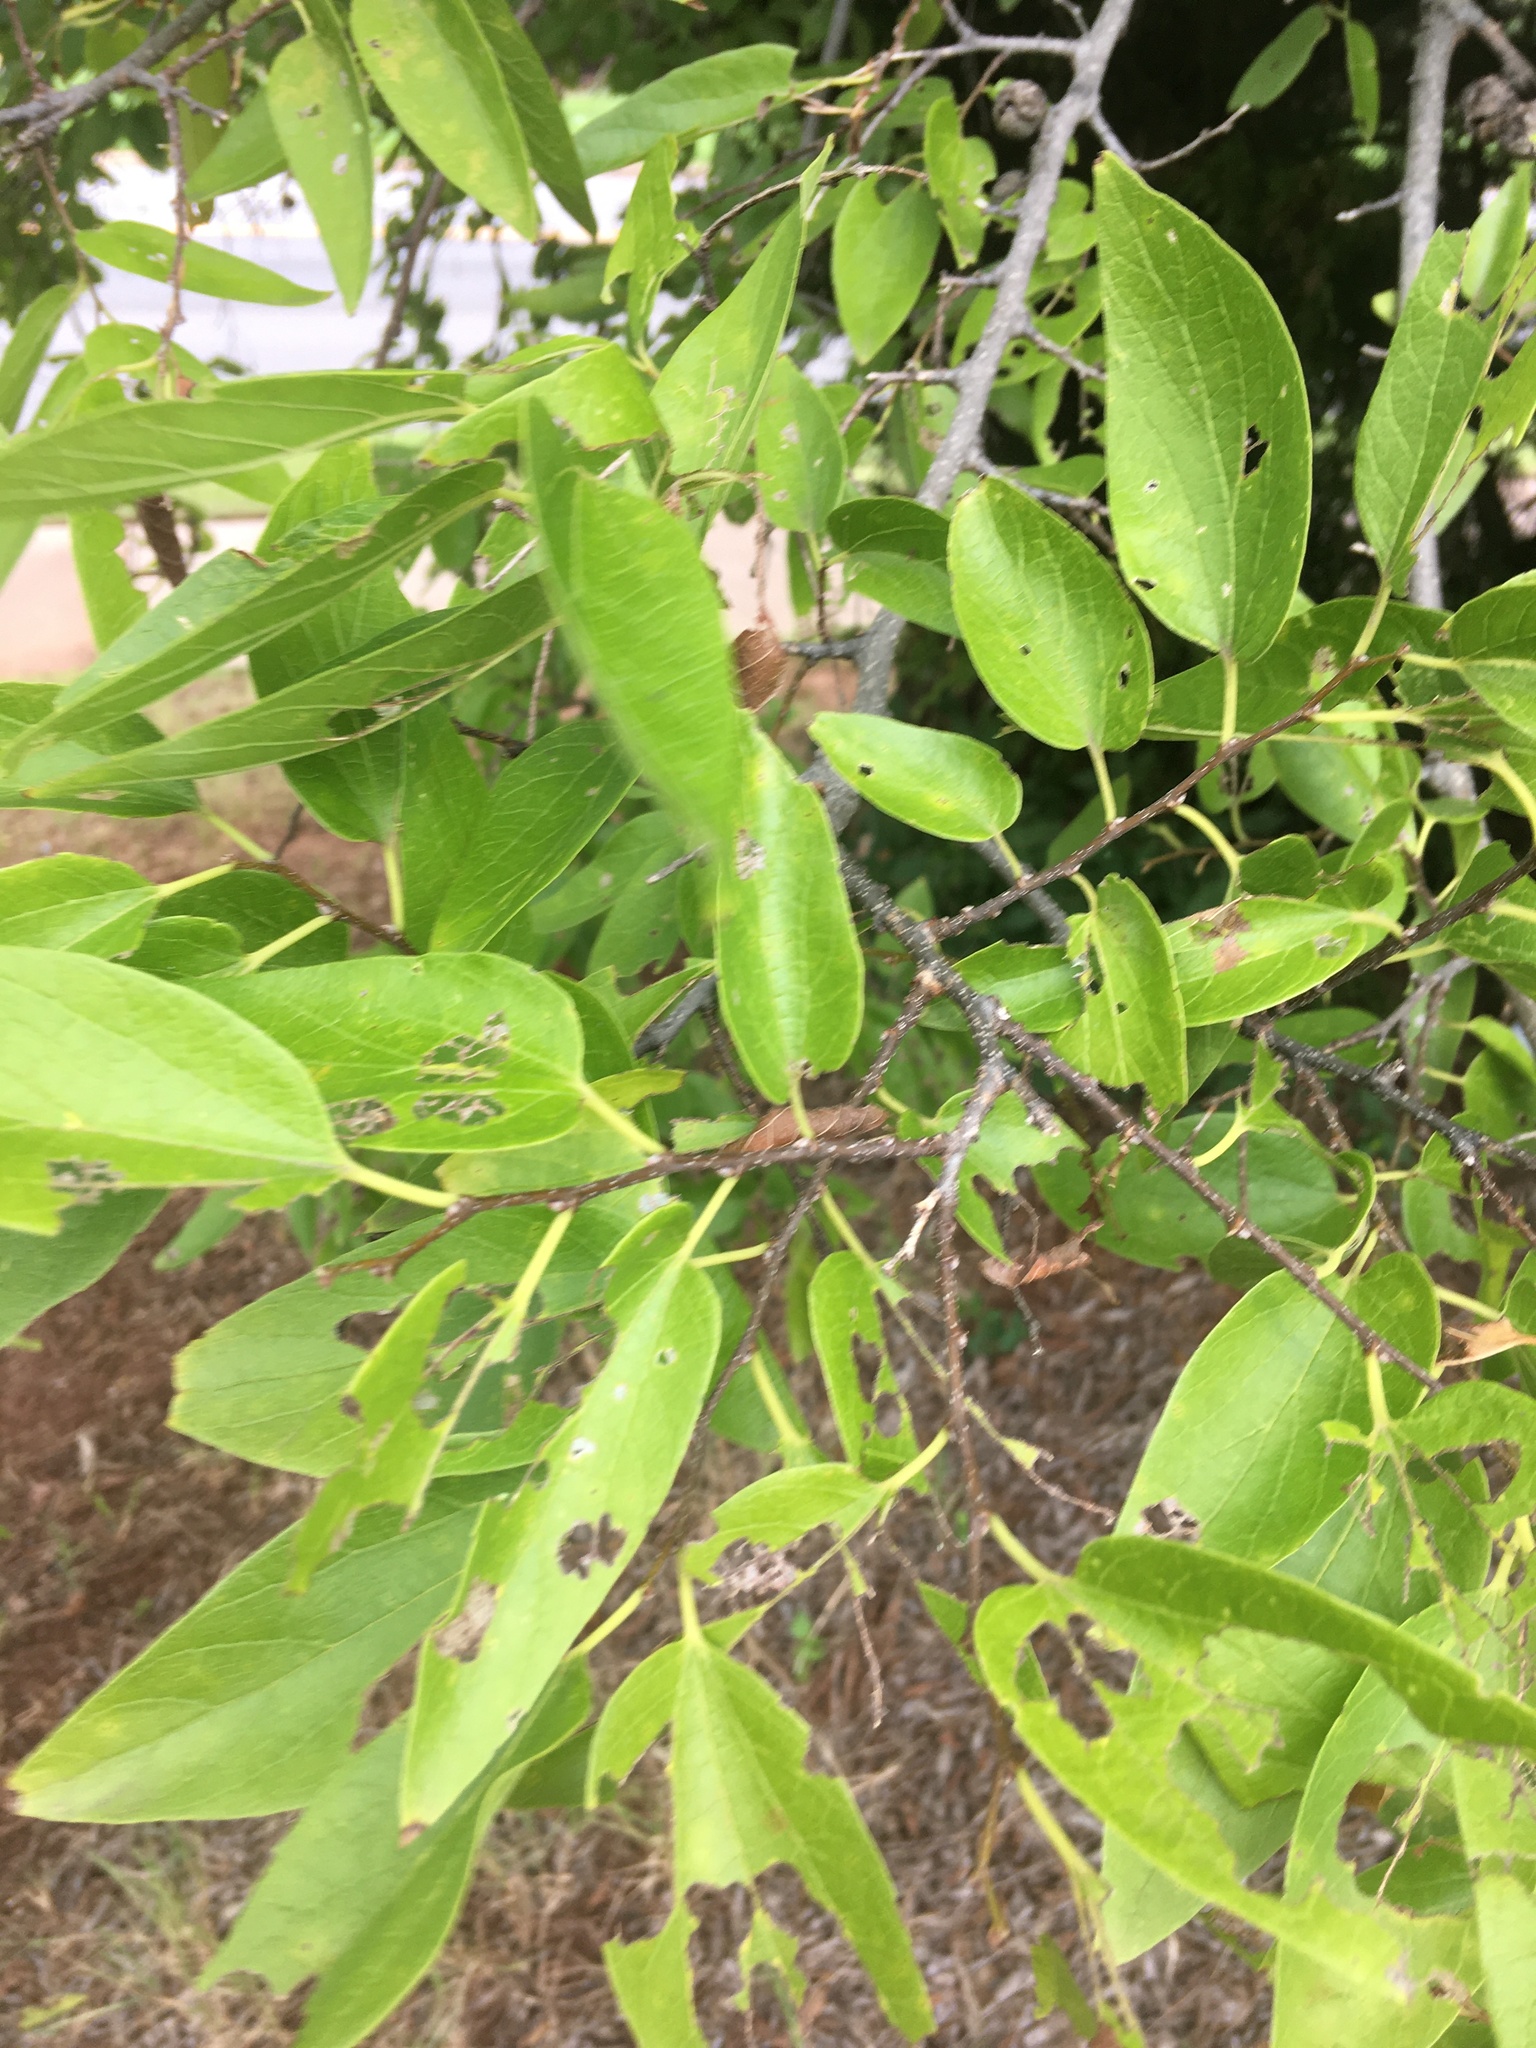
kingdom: Plantae
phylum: Tracheophyta
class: Magnoliopsida
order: Rosales
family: Cannabaceae
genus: Celtis
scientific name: Celtis laevigata
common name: Sugarberry
